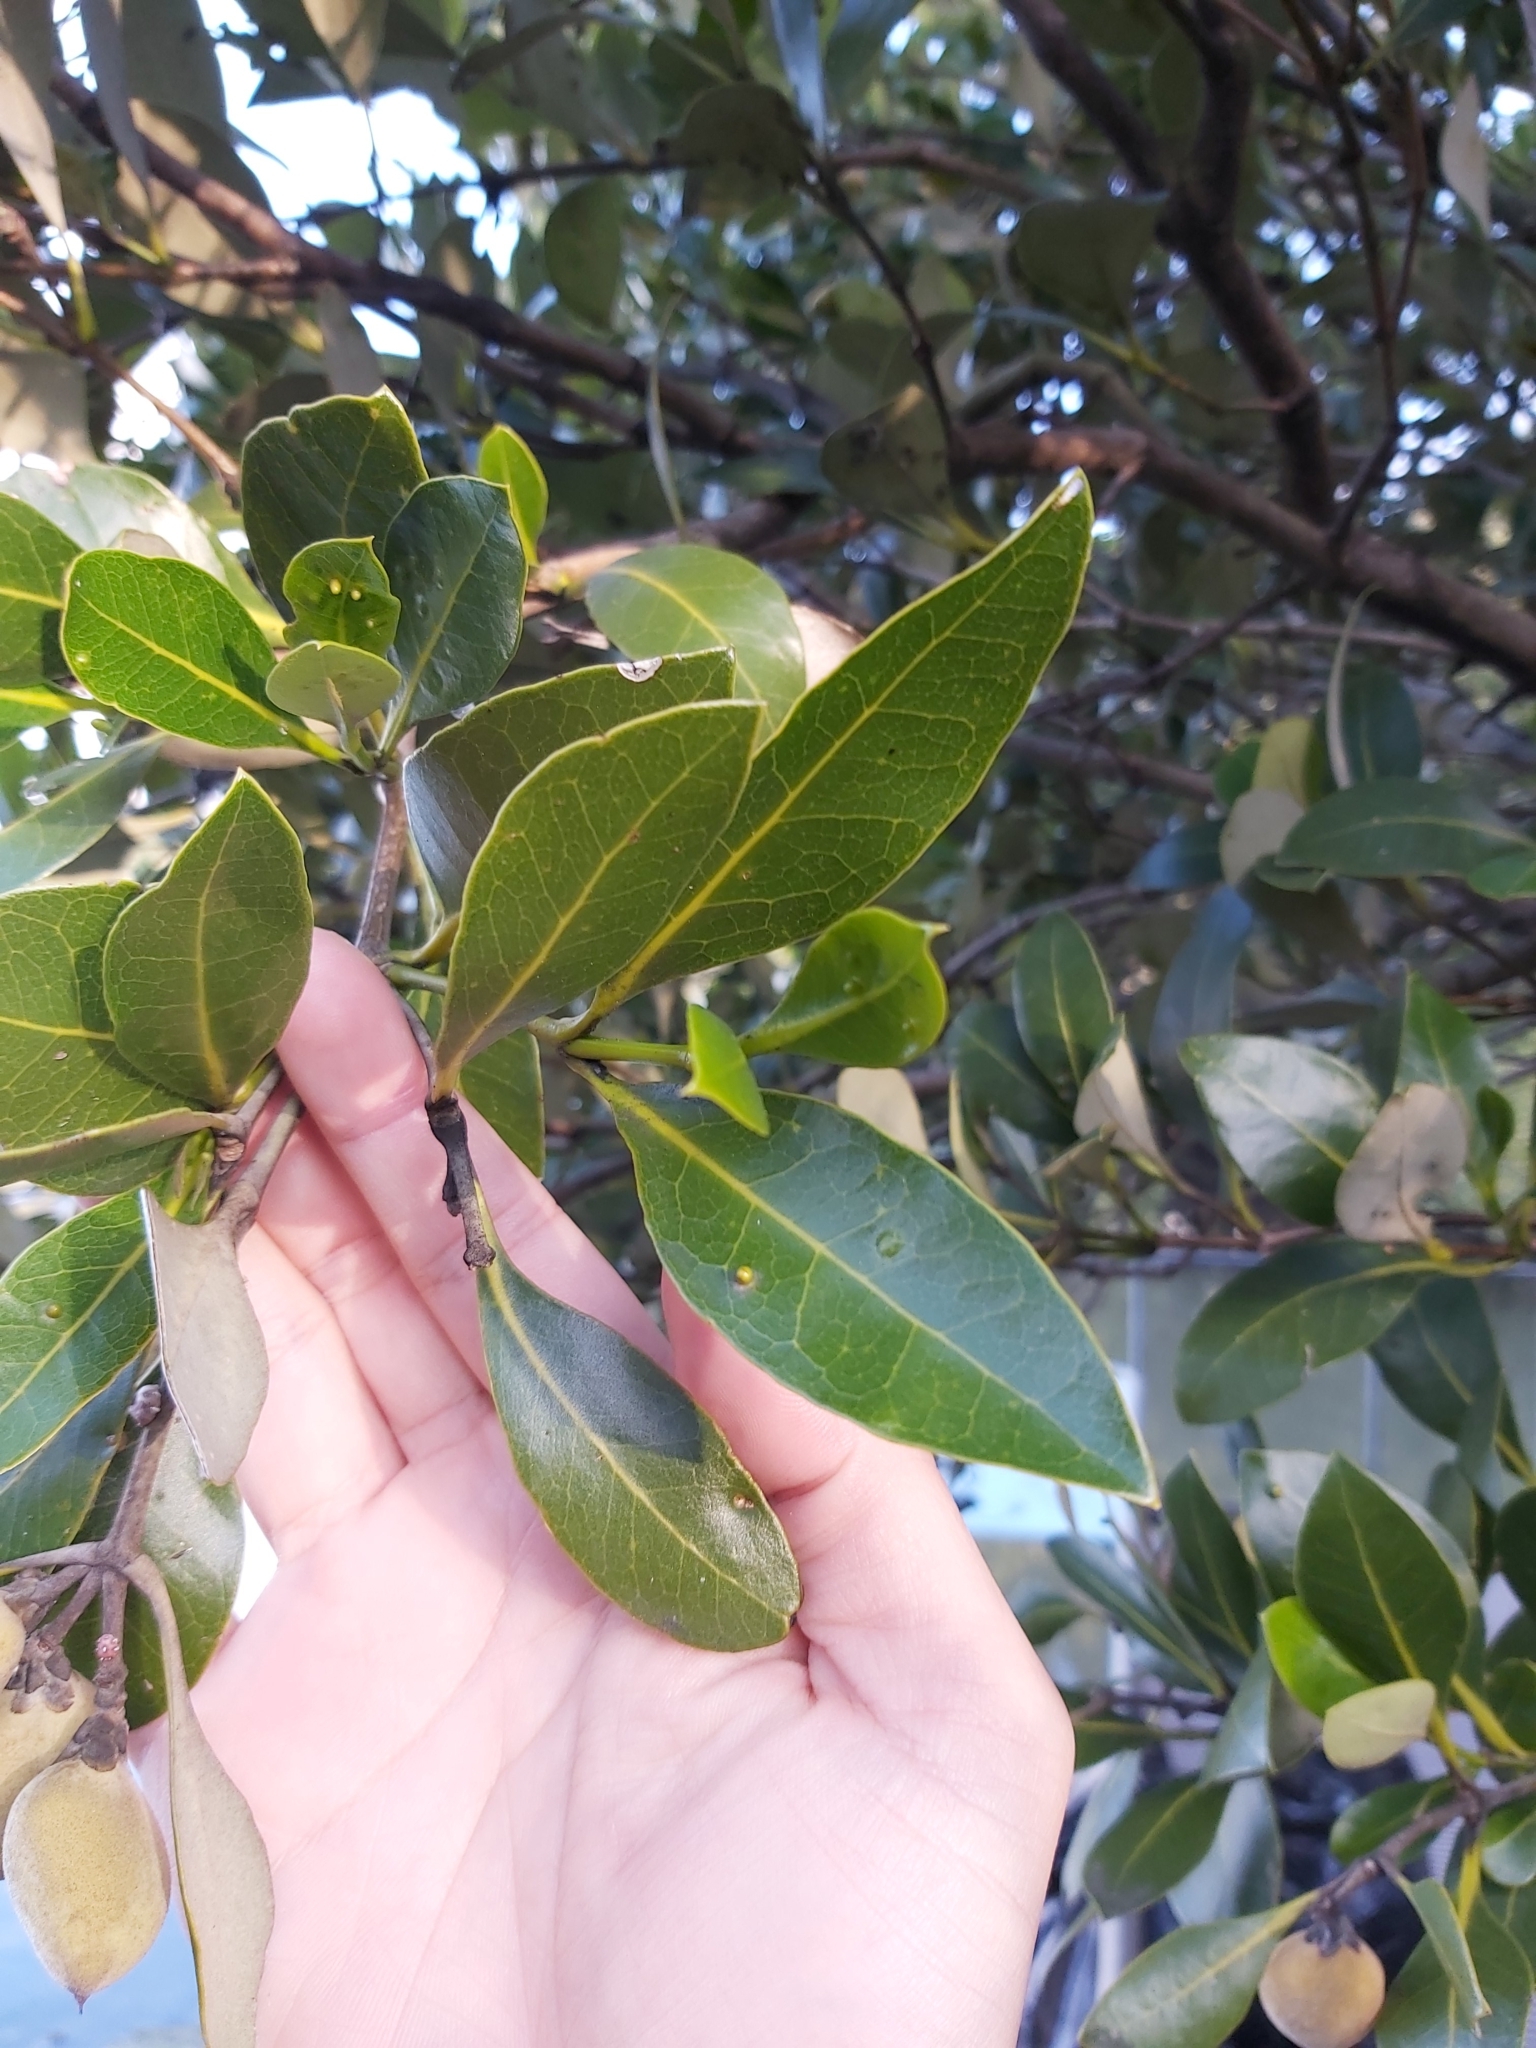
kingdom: Plantae
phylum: Tracheophyta
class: Magnoliopsida
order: Lamiales
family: Acanthaceae
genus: Avicennia
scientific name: Avicennia marina
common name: Gray mangrove
